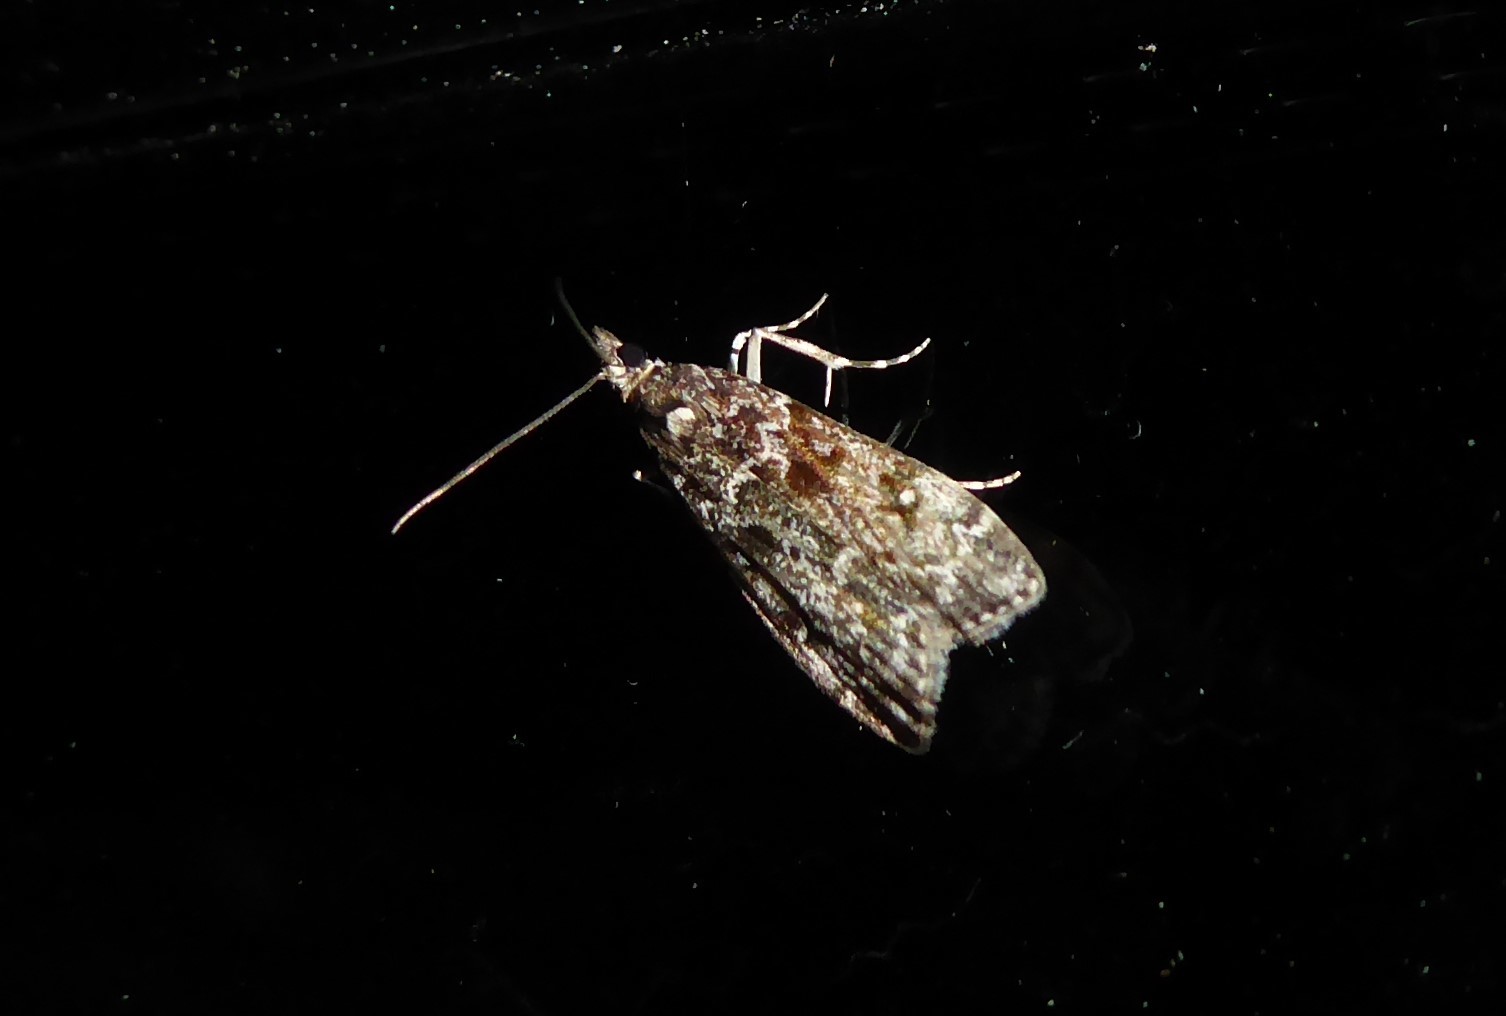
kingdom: Animalia
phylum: Arthropoda
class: Insecta
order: Lepidoptera
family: Crambidae
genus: Eudonia
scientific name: Eudonia philerga
